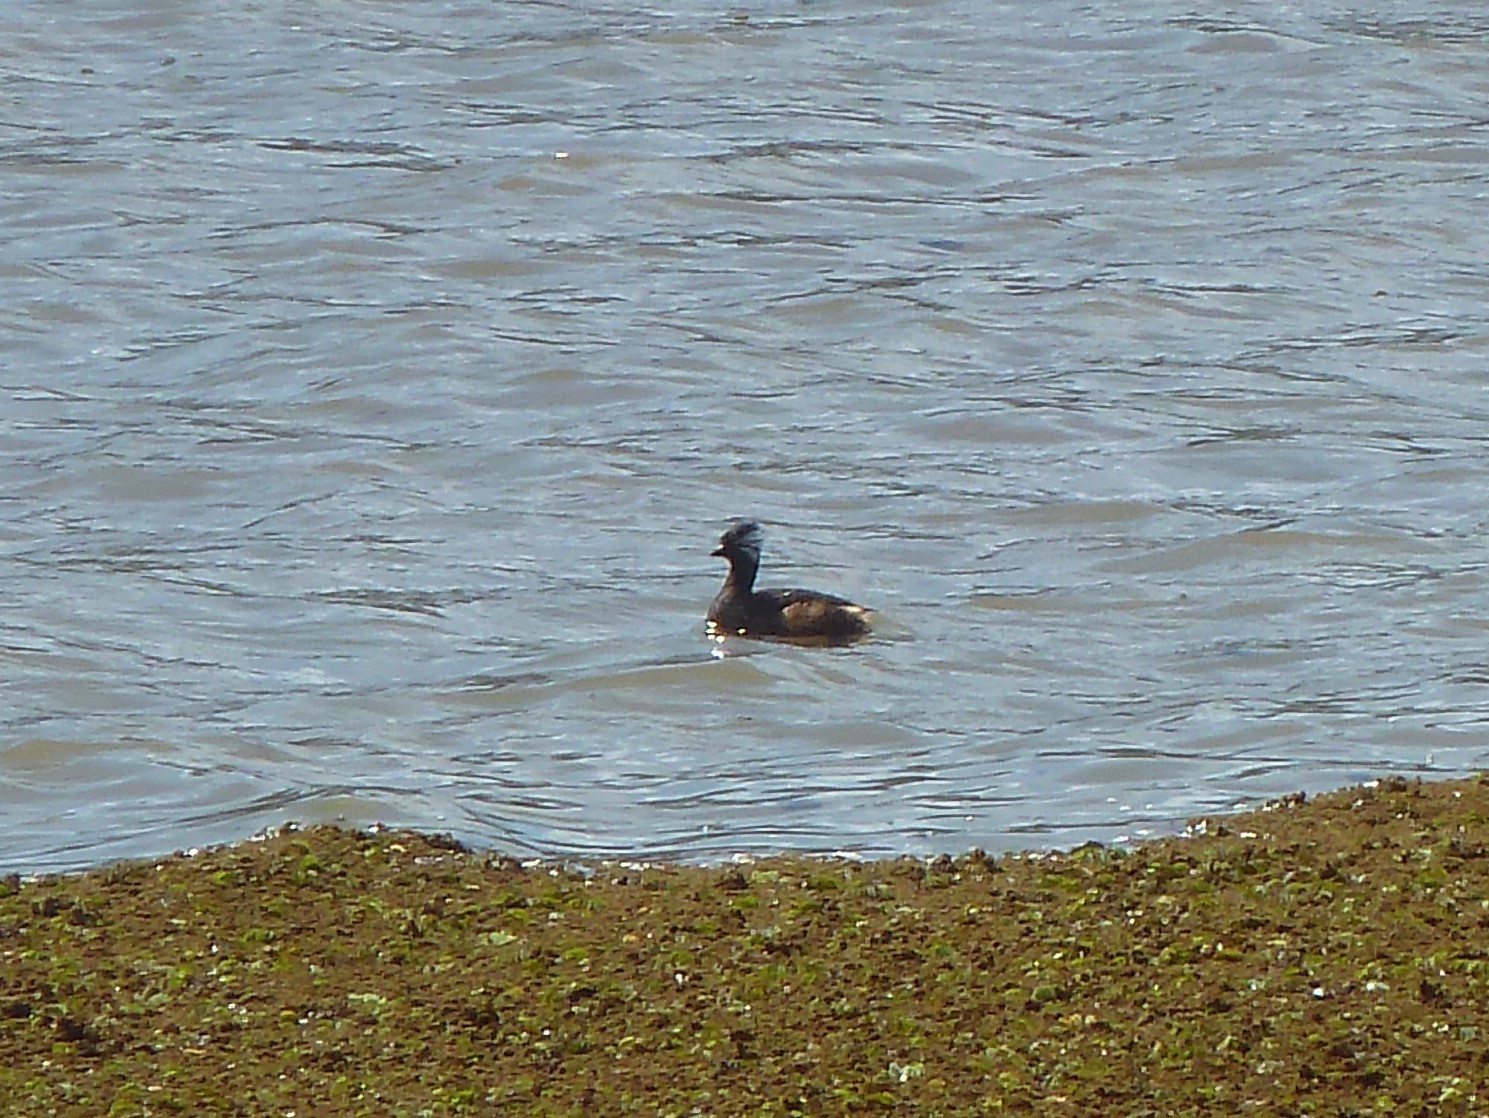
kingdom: Animalia
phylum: Chordata
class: Aves
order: Podicipediformes
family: Podicipedidae
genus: Rollandia
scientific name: Rollandia rolland
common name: White-tufted grebe
